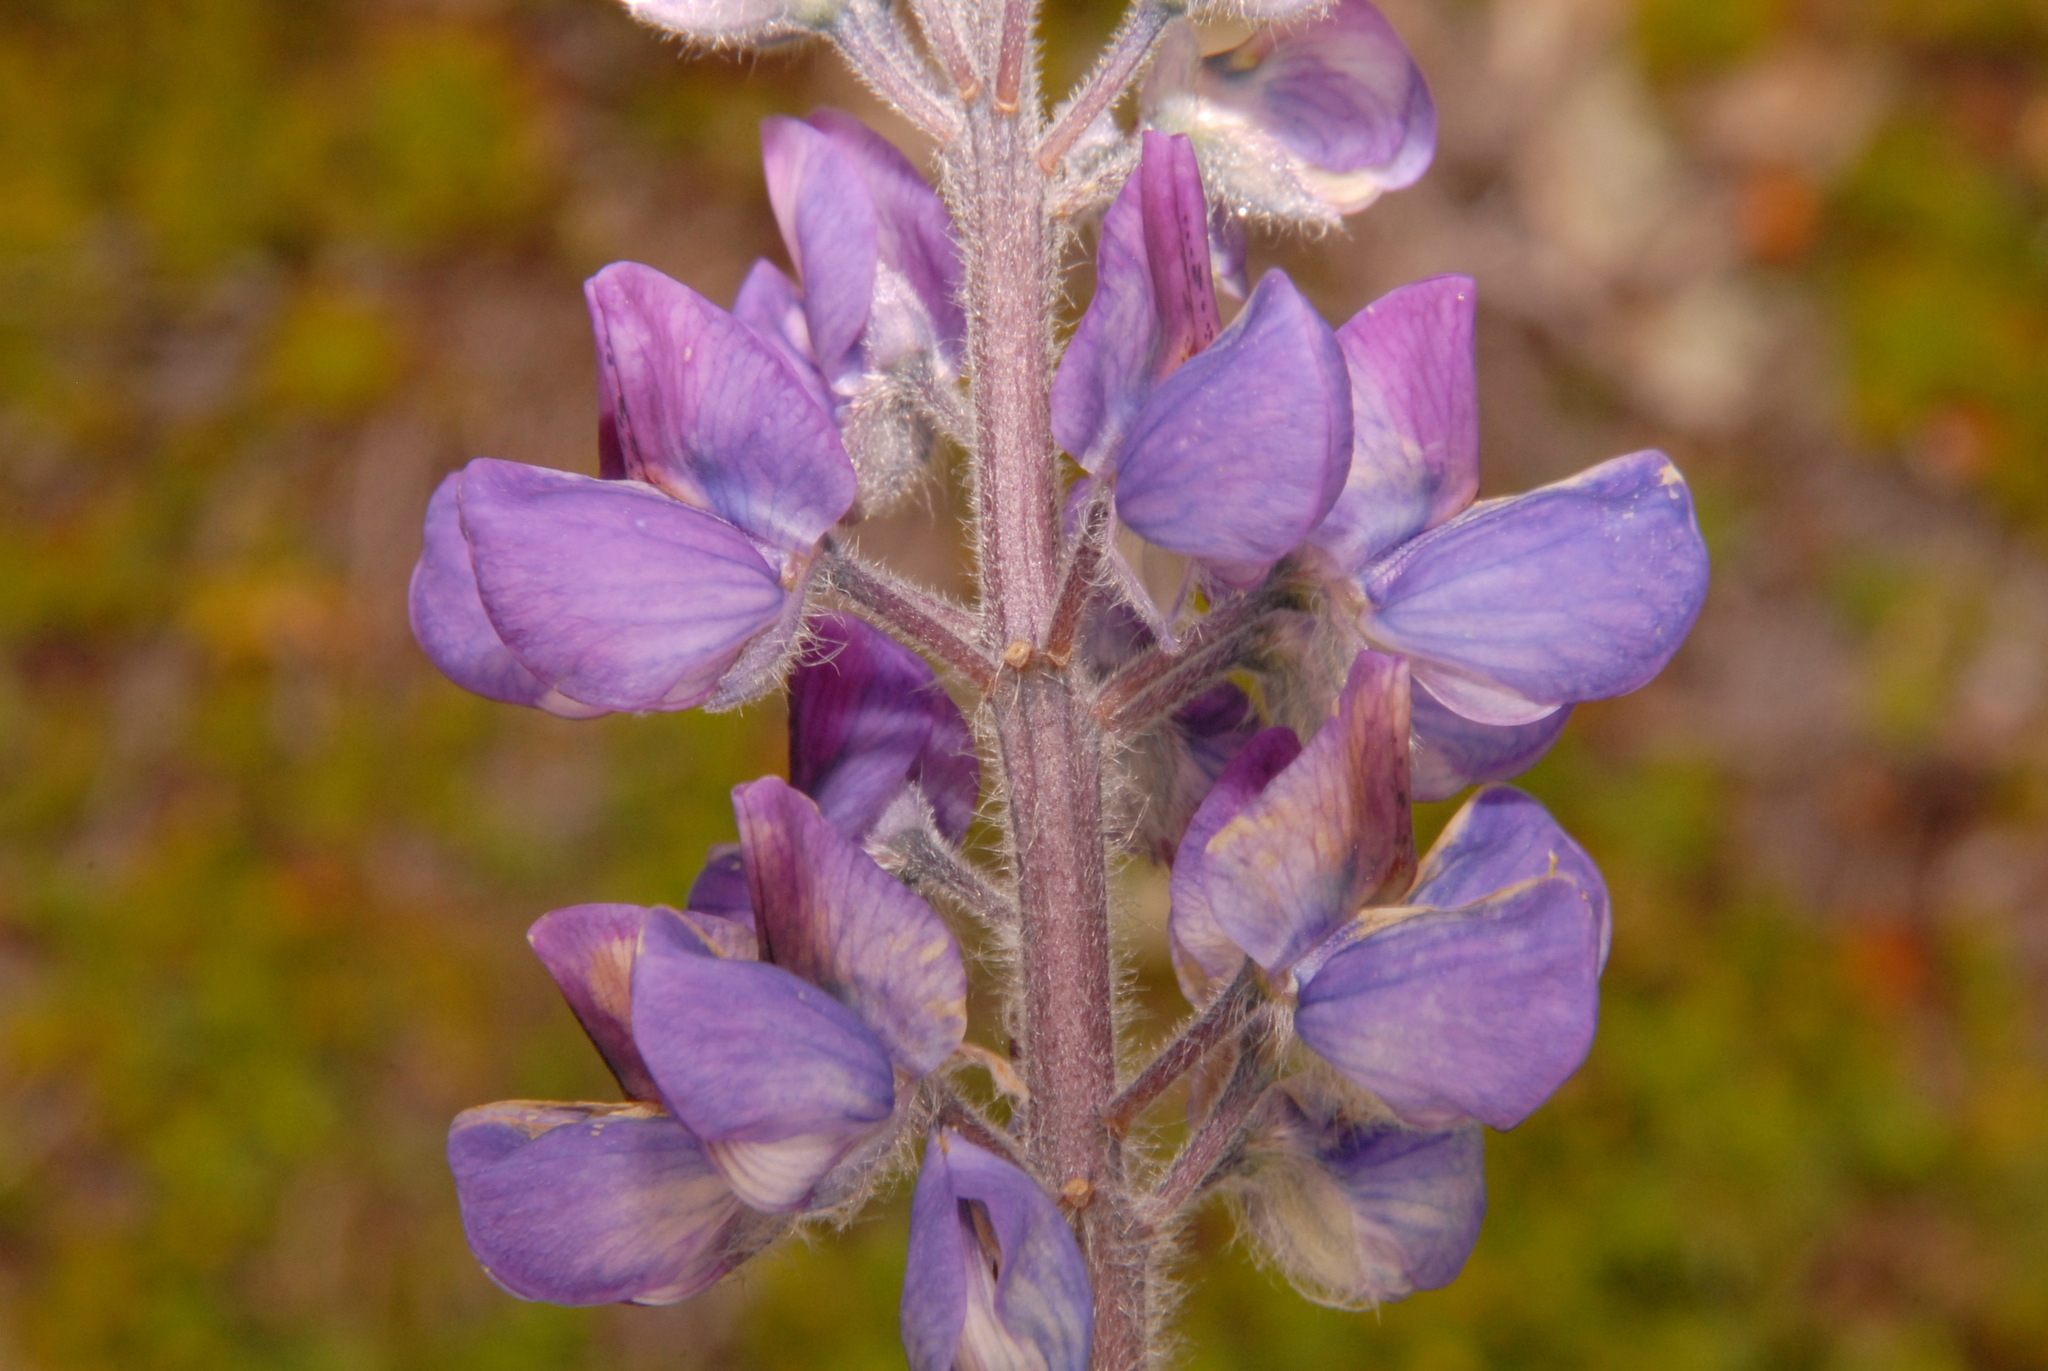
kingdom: Plantae
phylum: Tracheophyta
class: Magnoliopsida
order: Fabales
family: Fabaceae
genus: Lupinus
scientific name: Lupinus nootkatensis
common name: Nootka lupine
